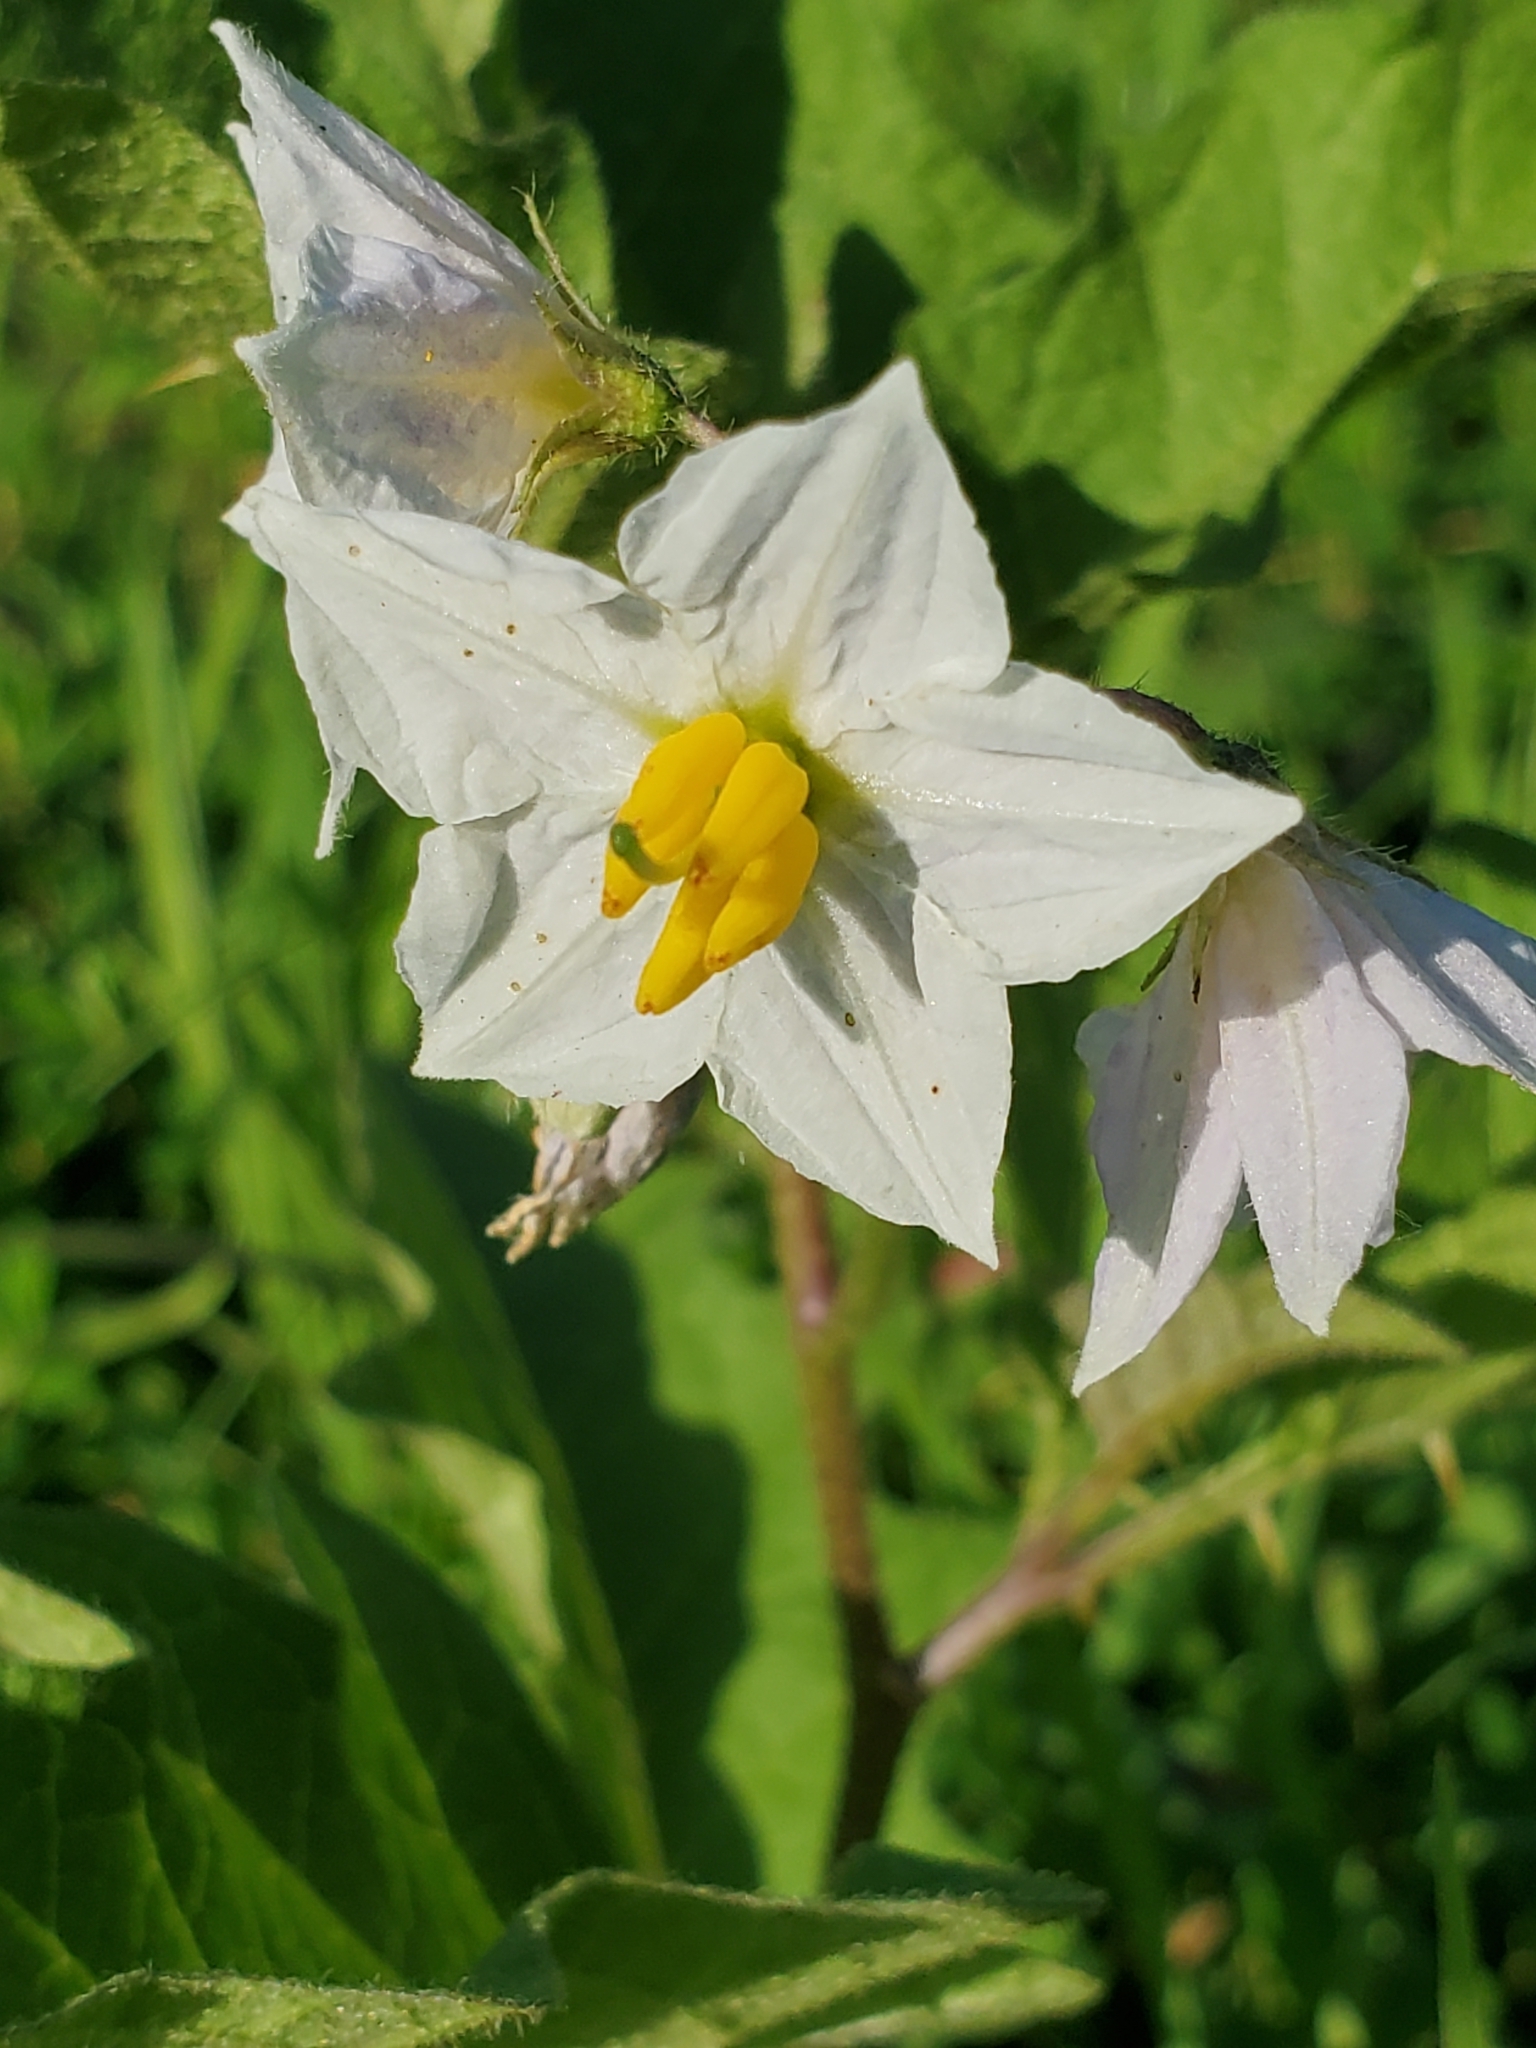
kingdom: Plantae
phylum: Tracheophyta
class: Magnoliopsida
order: Solanales
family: Solanaceae
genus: Solanum
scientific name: Solanum carolinense
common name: Horse-nettle
